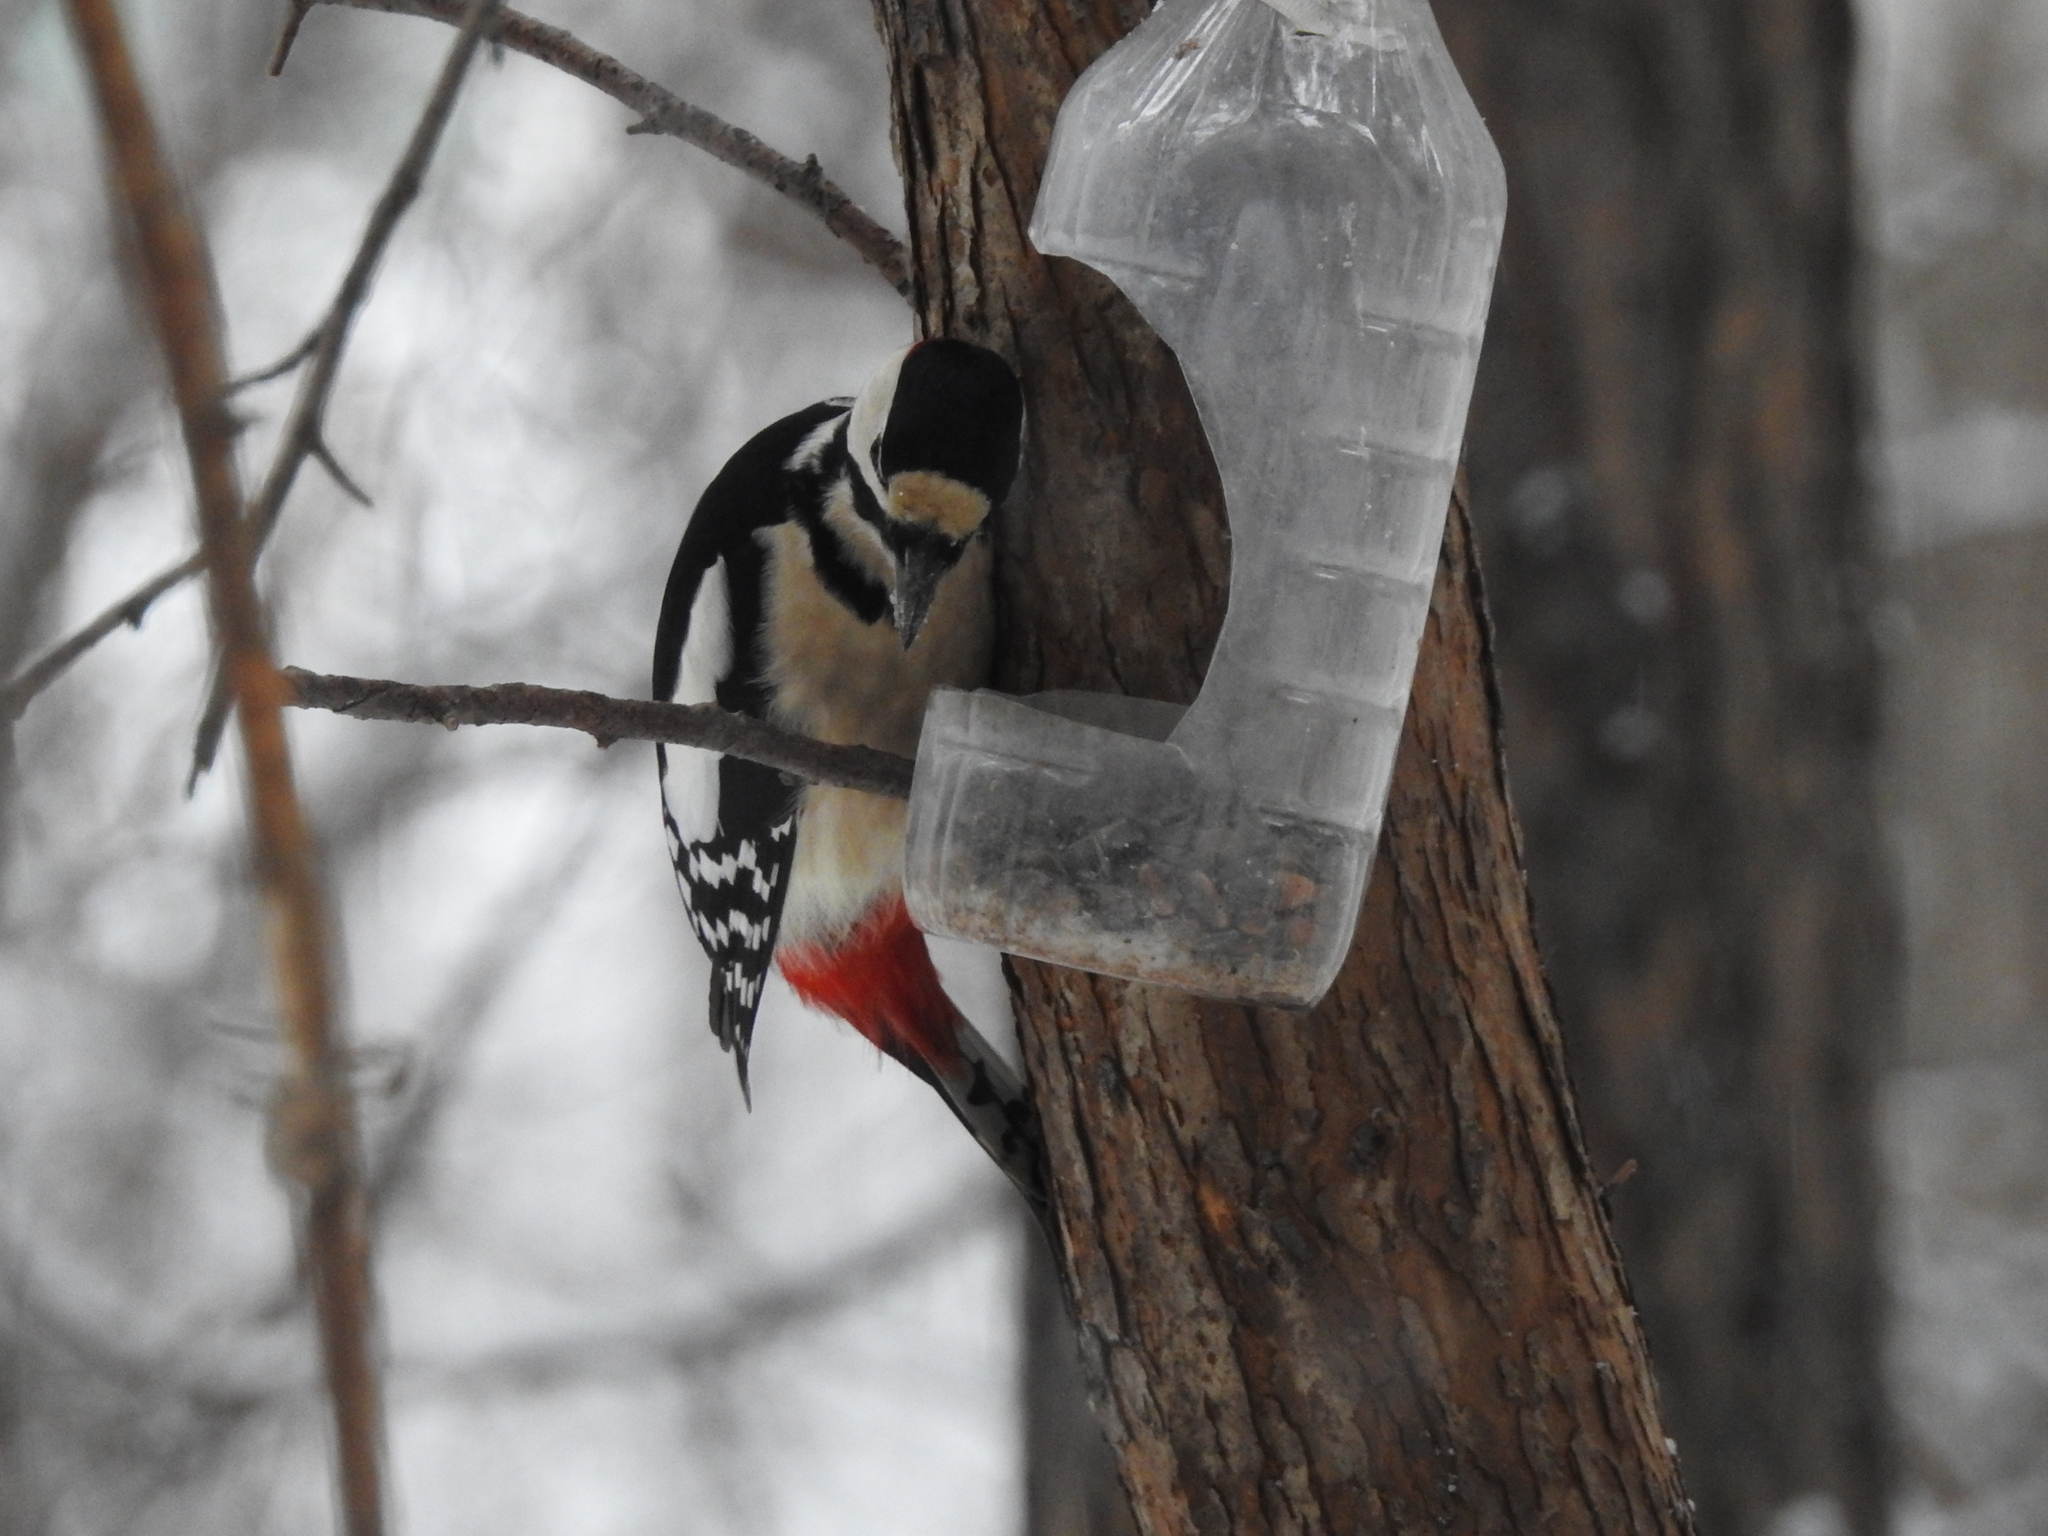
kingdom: Animalia
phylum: Chordata
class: Aves
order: Piciformes
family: Picidae
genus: Dendrocopos
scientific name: Dendrocopos major
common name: Great spotted woodpecker
